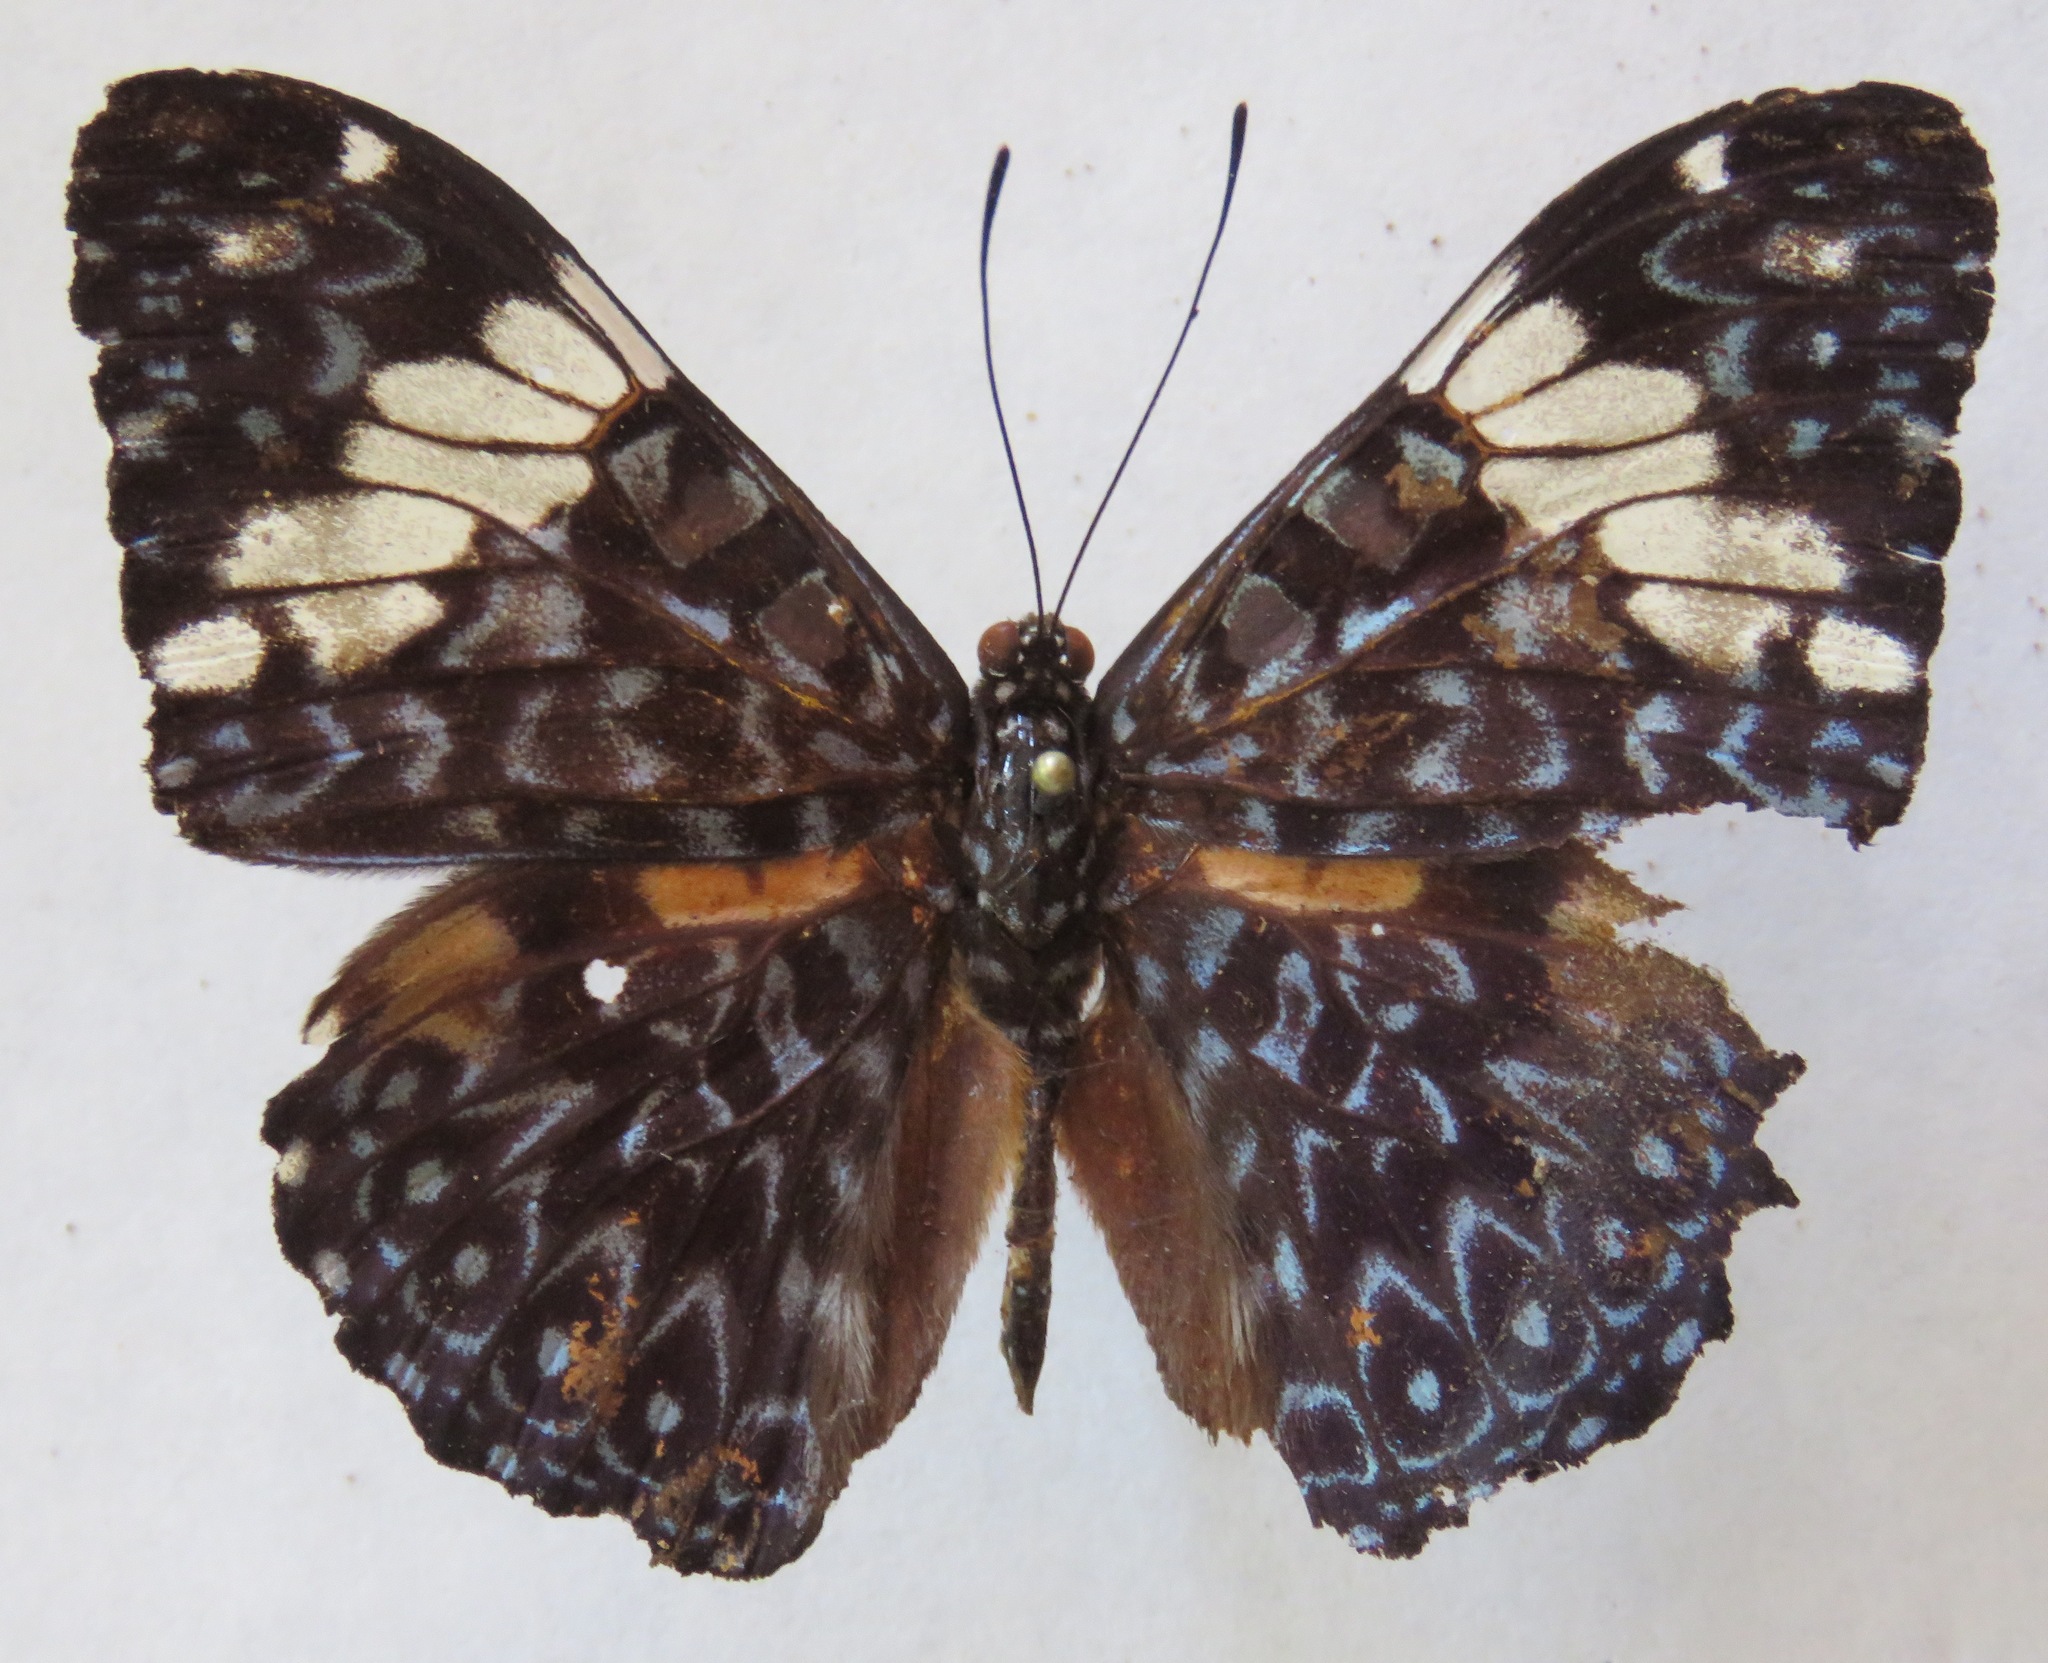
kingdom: Animalia
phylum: Arthropoda
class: Insecta
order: Lepidoptera
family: Nymphalidae
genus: Hamadryas
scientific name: Hamadryas amphinome
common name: Red cracker
